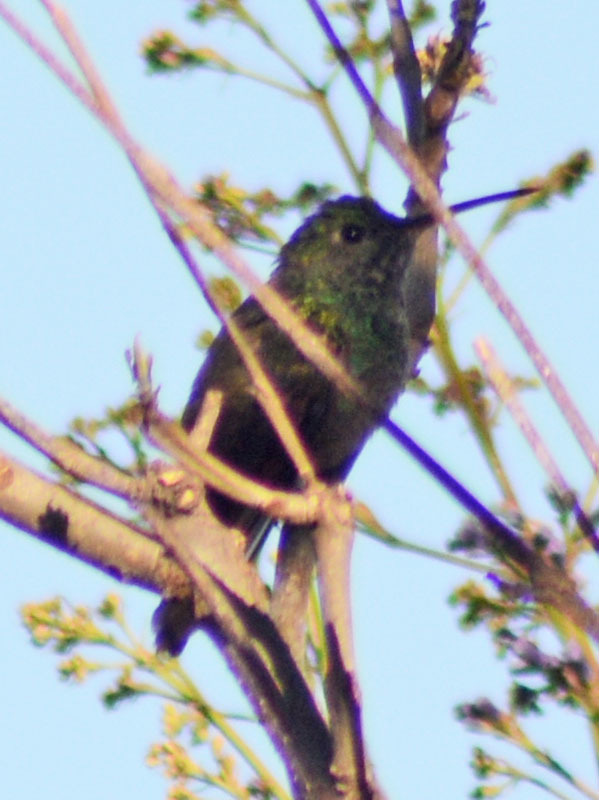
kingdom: Animalia
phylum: Chordata
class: Aves
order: Apodiformes
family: Trochilidae
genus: Saucerottia
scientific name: Saucerottia beryllina
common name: Berylline hummingbird
